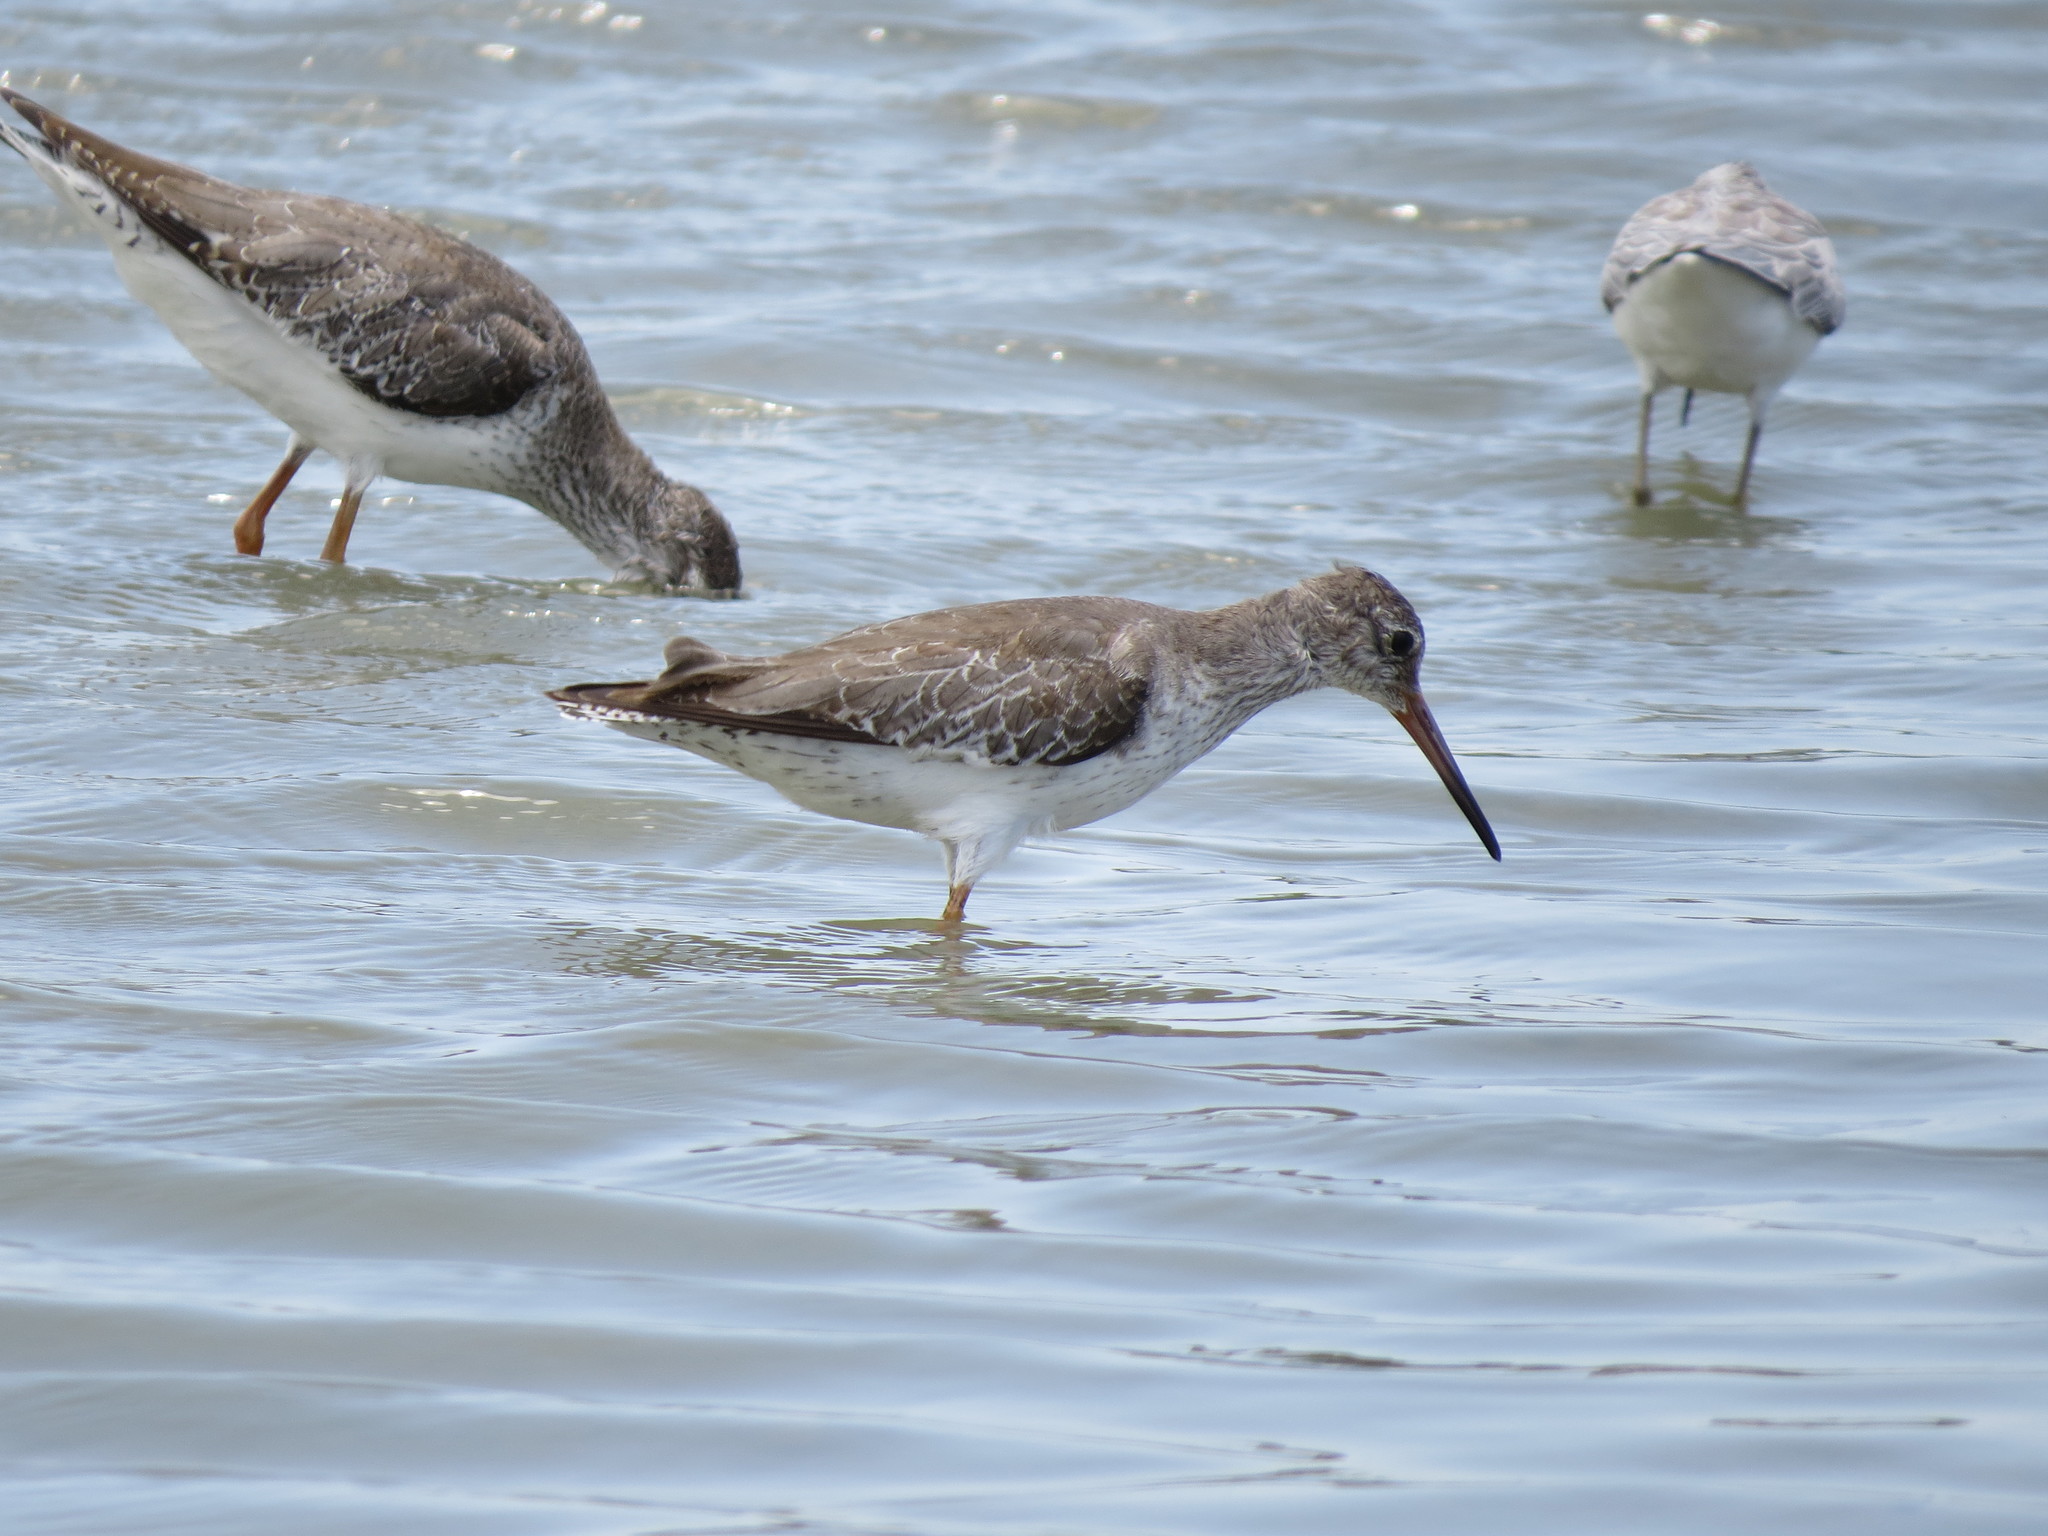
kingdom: Animalia
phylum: Chordata
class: Aves
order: Charadriiformes
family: Scolopacidae
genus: Tringa
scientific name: Tringa totanus
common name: Common redshank
